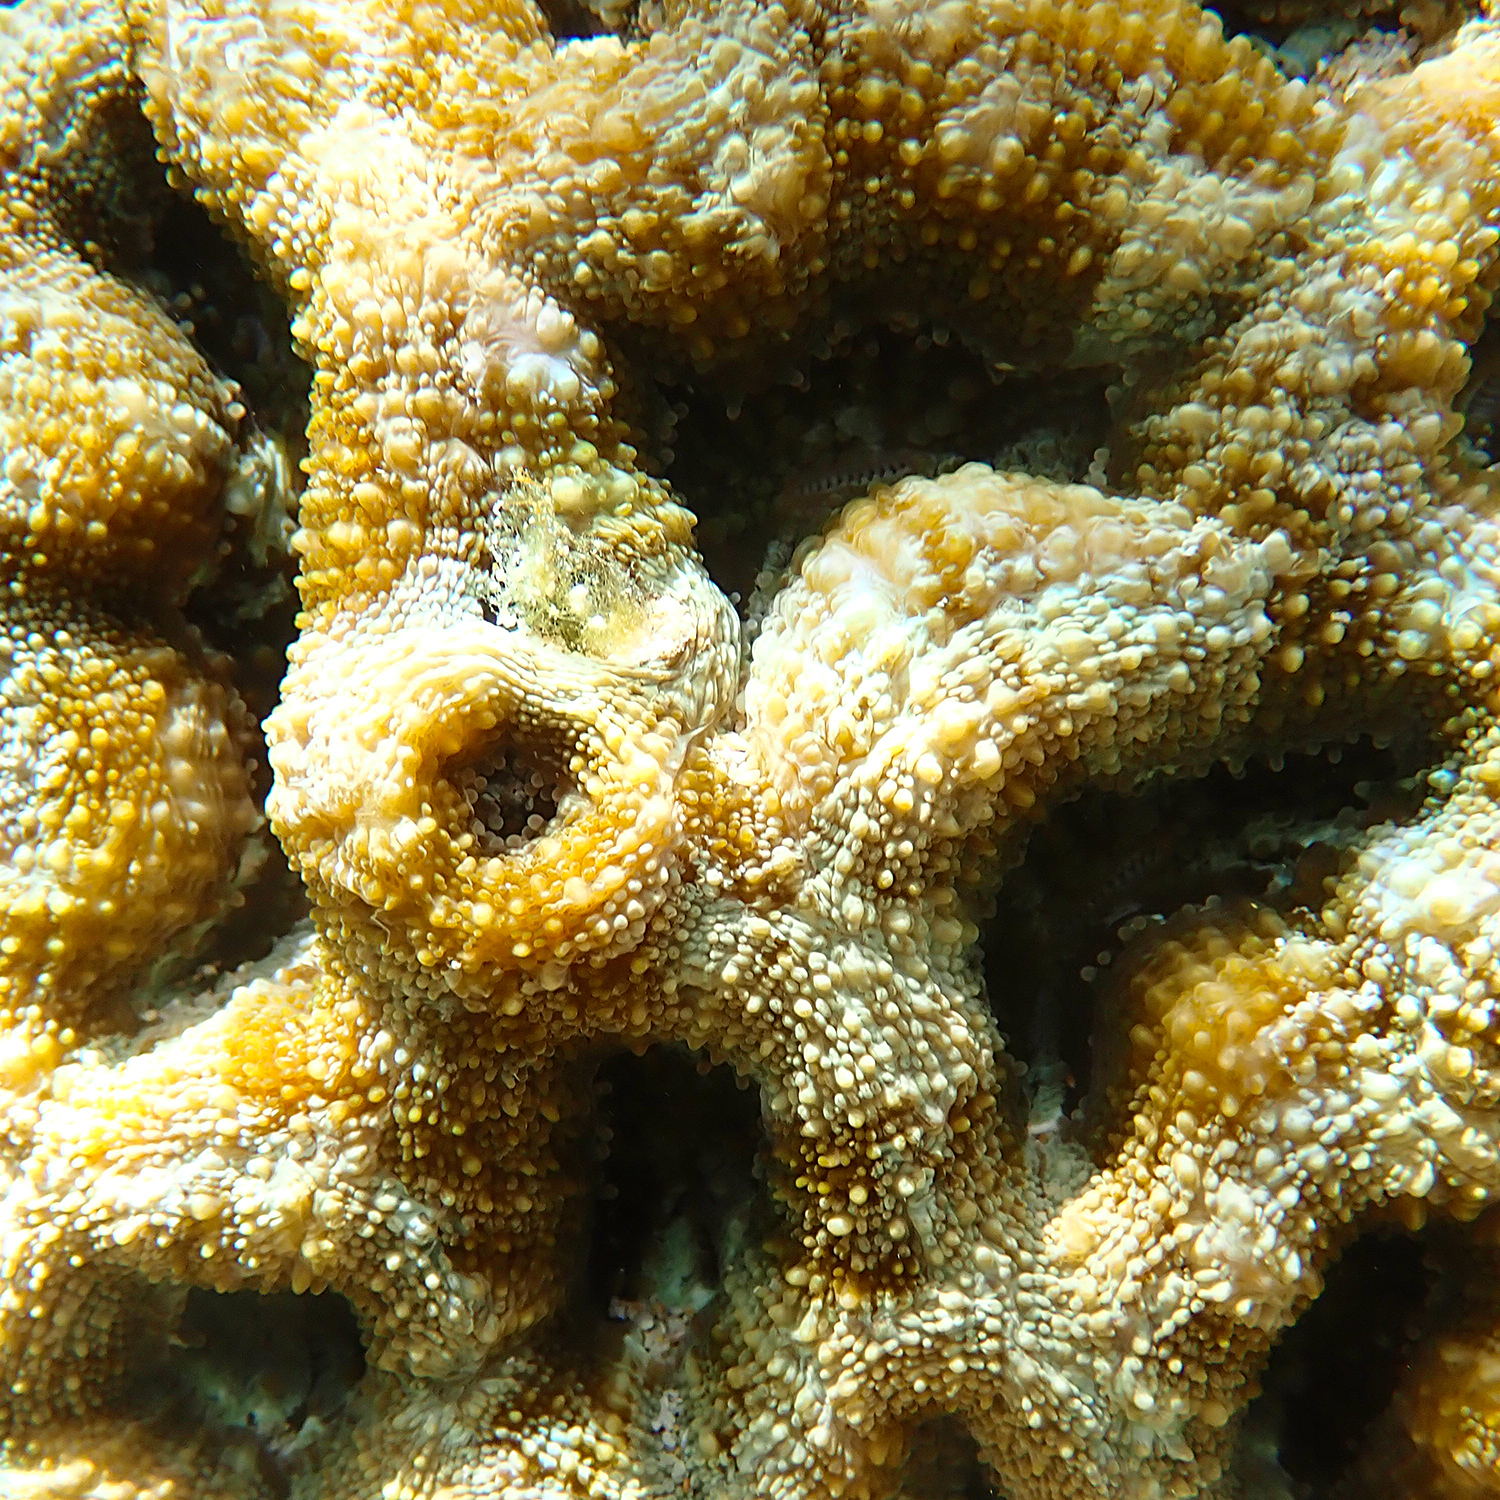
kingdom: Animalia
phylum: Cnidaria
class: Anthozoa
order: Scleractinia
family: Lobophylliidae
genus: Homophyllia
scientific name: Homophyllia bowerbanki
